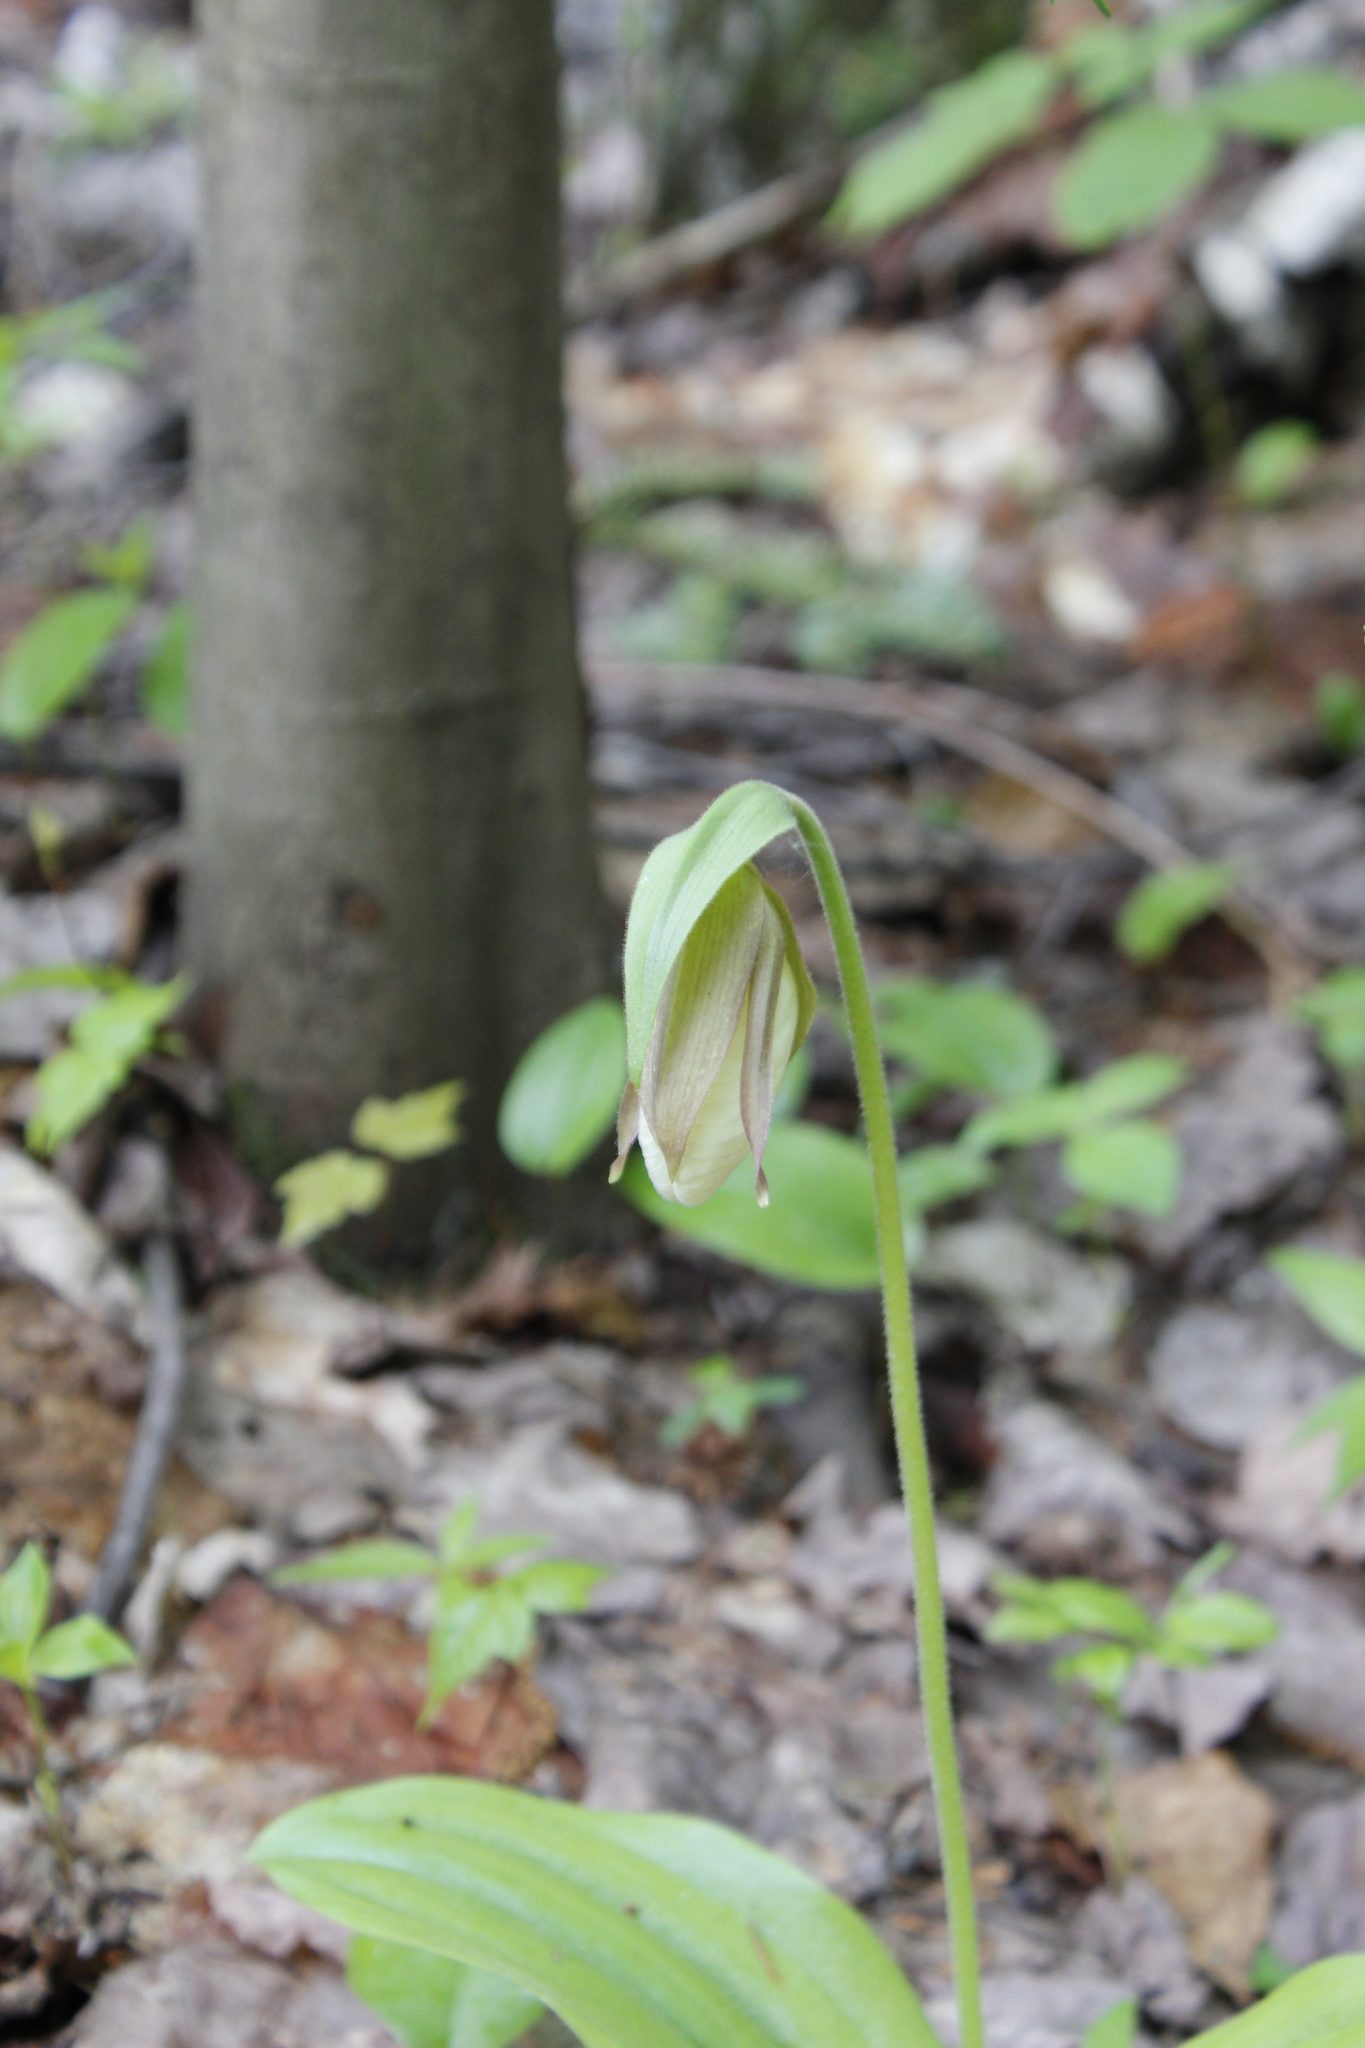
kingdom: Plantae
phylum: Tracheophyta
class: Liliopsida
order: Asparagales
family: Orchidaceae
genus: Cypripedium
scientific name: Cypripedium acaule
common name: Pink lady's-slipper
